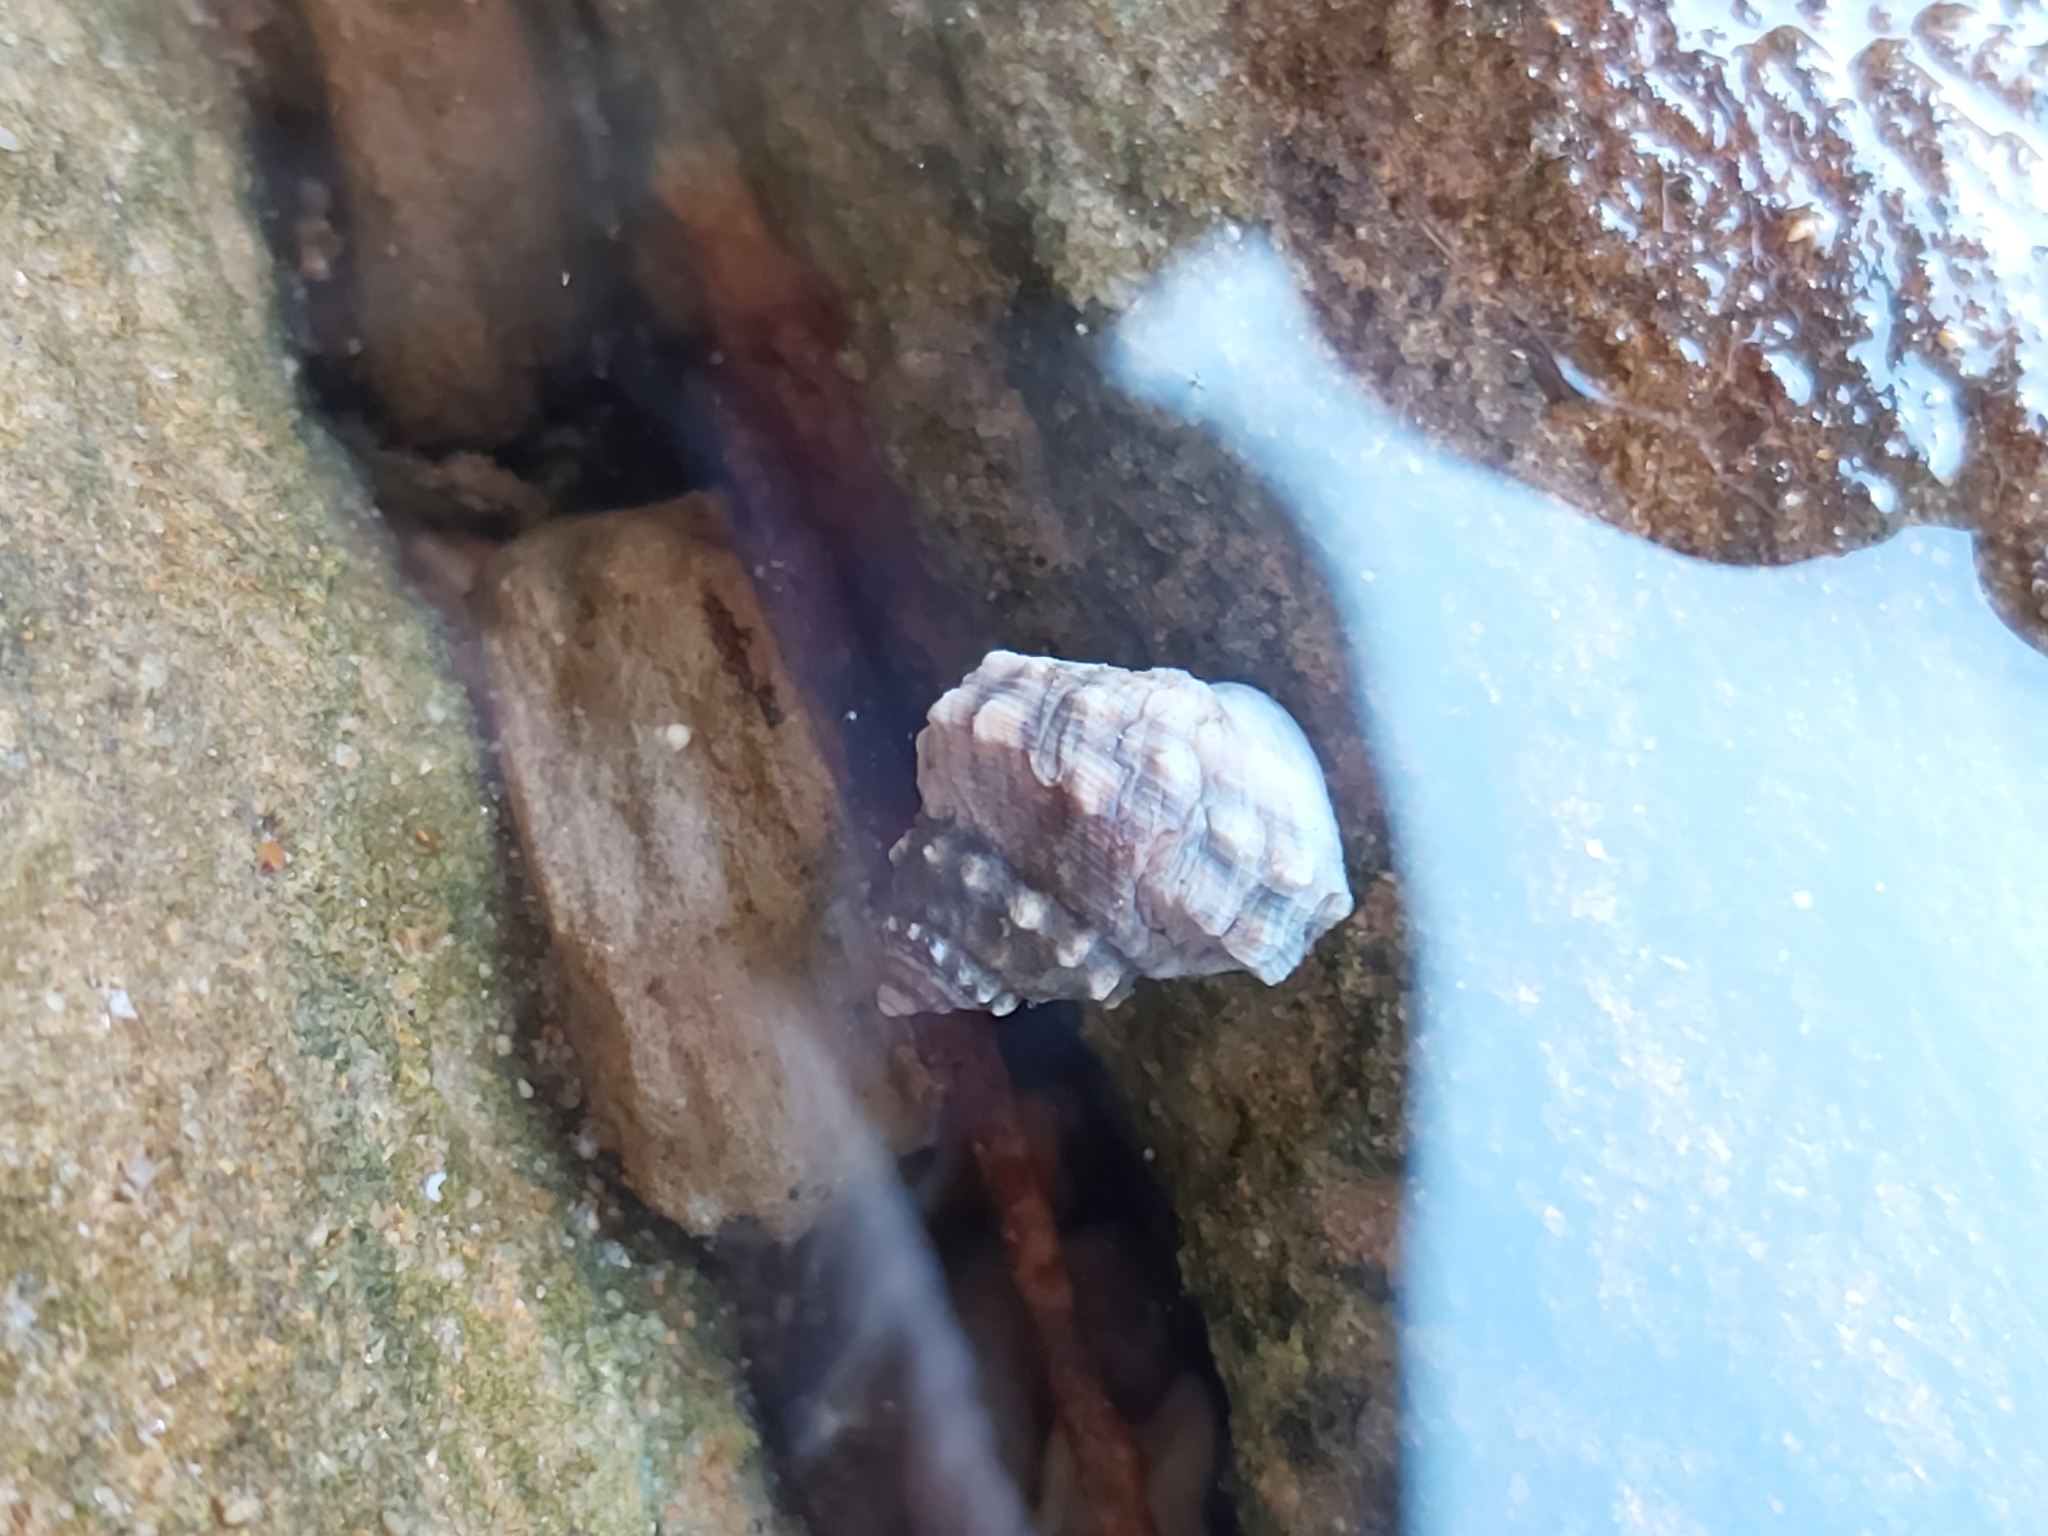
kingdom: Animalia
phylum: Mollusca
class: Gastropoda
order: Littorinimorpha
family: Littorinidae
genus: Nodilittorina
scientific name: Nodilittorina pyramidalis
